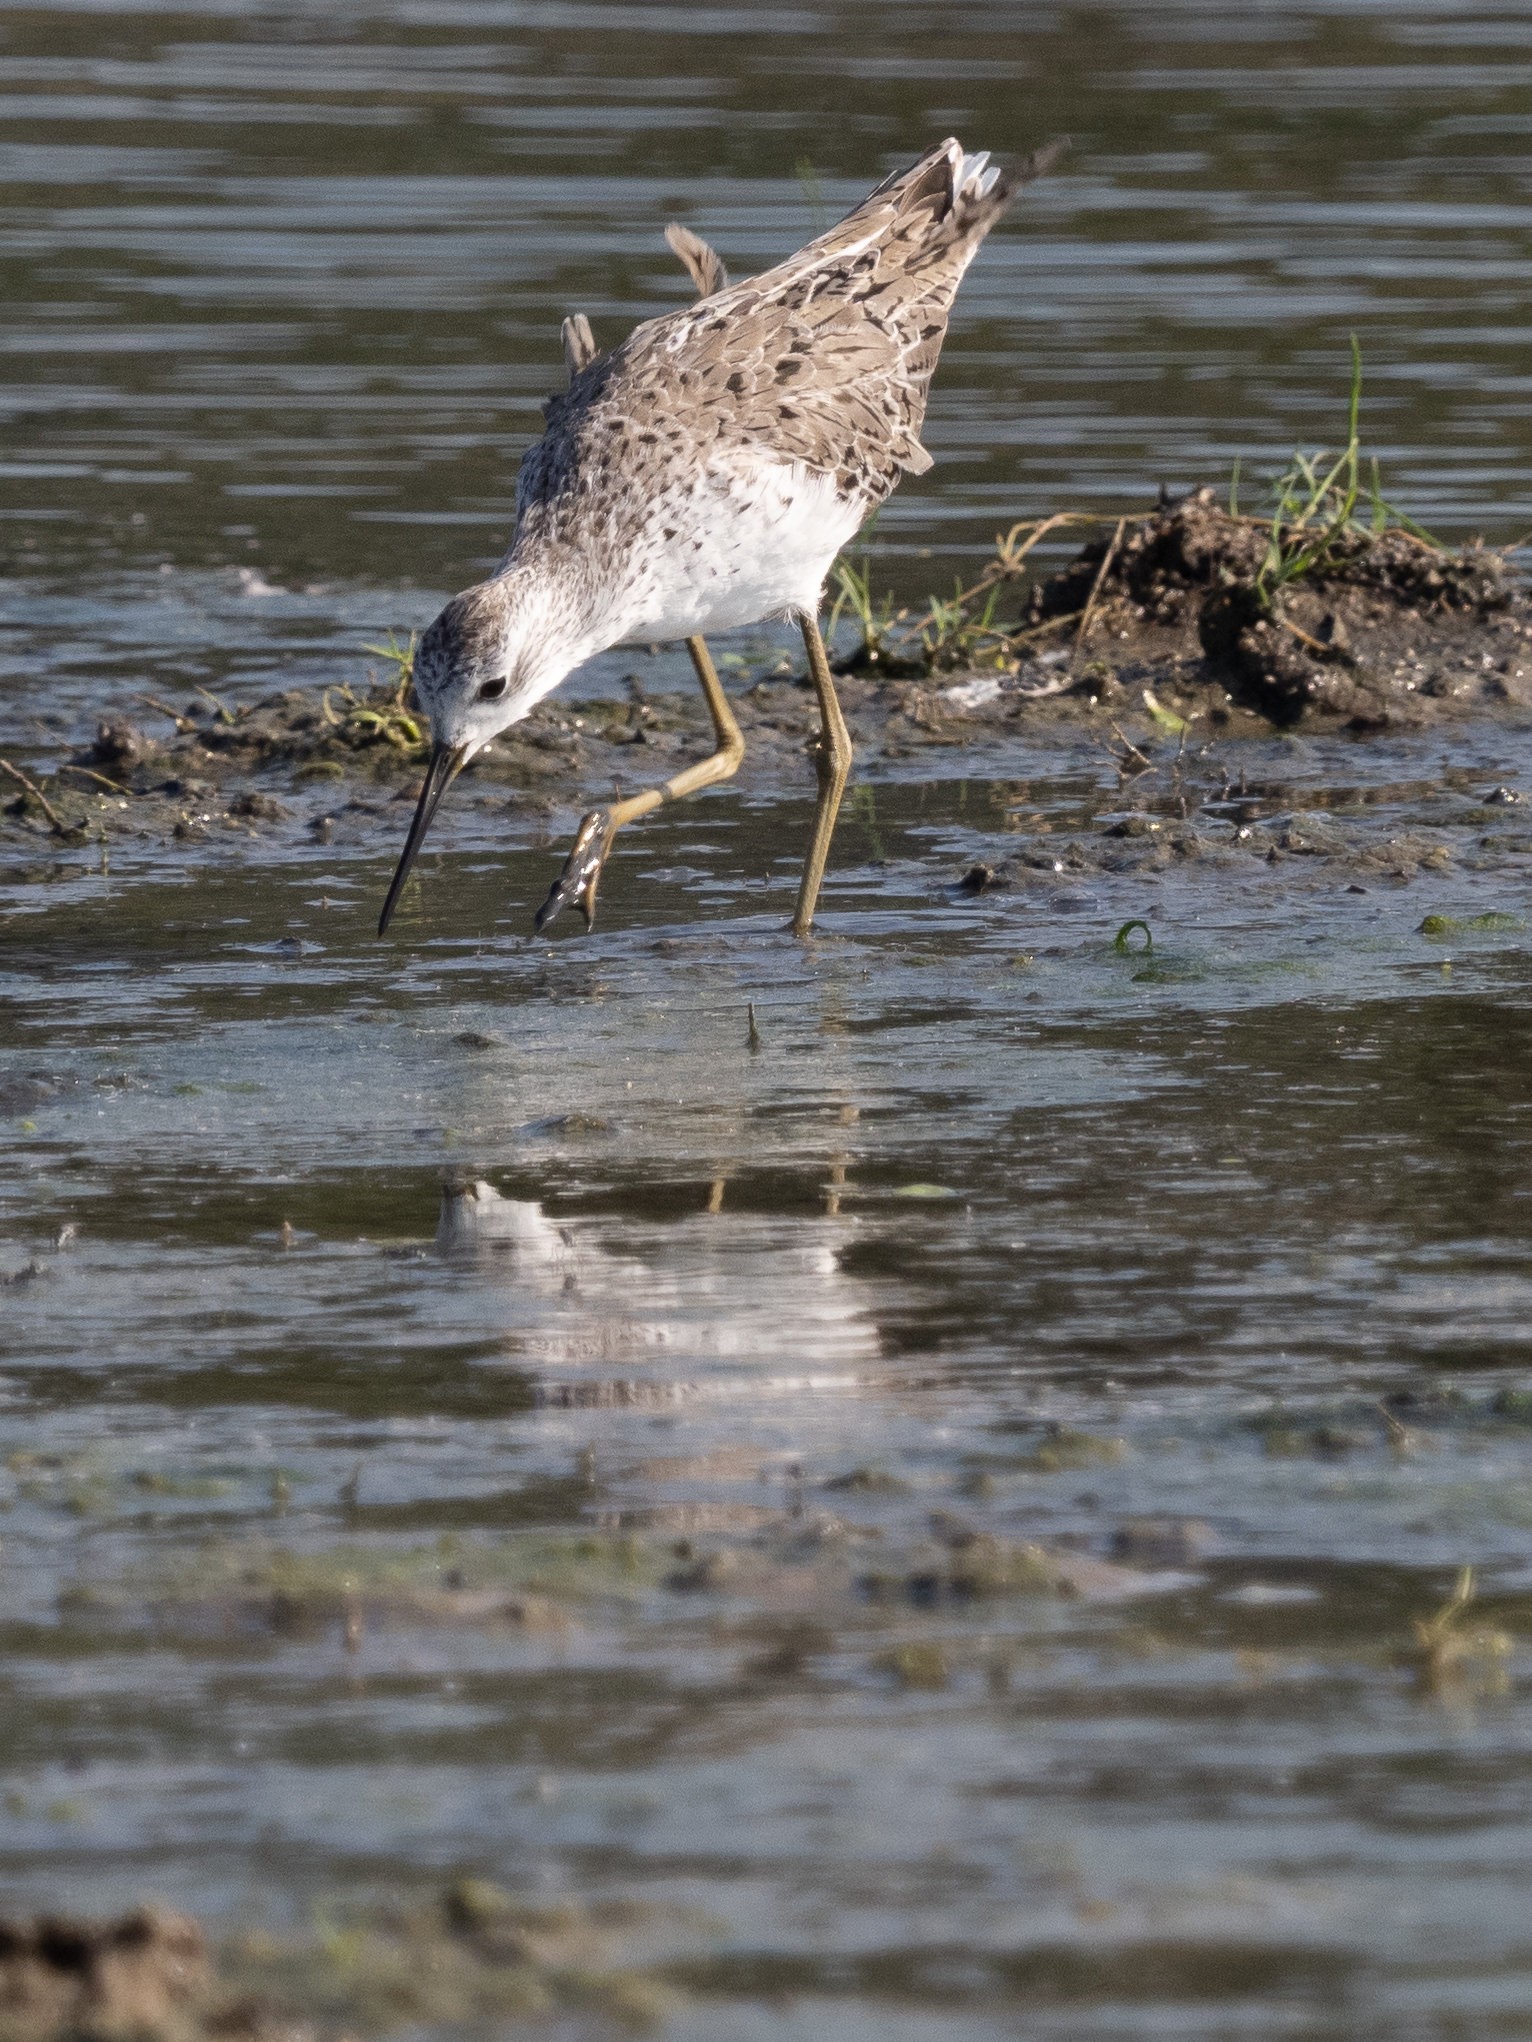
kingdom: Animalia
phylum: Chordata
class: Aves
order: Charadriiformes
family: Scolopacidae
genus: Tringa
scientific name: Tringa stagnatilis
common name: Marsh sandpiper
